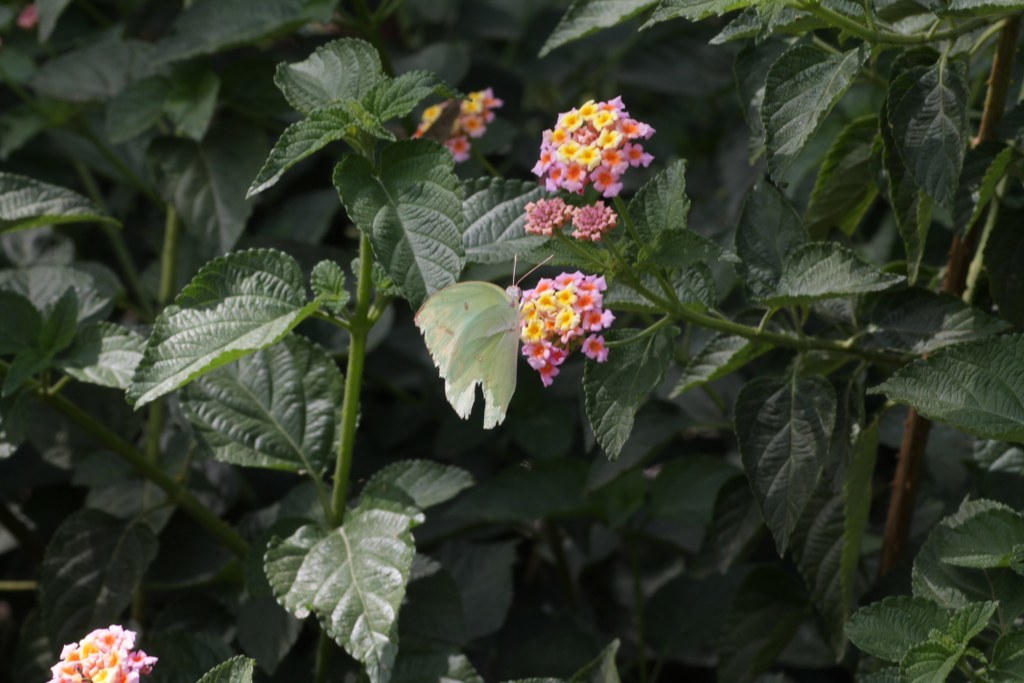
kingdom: Animalia
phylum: Arthropoda
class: Insecta
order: Lepidoptera
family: Pieridae
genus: Catopsilia
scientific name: Catopsilia pyranthe
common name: Mottled emigrant
